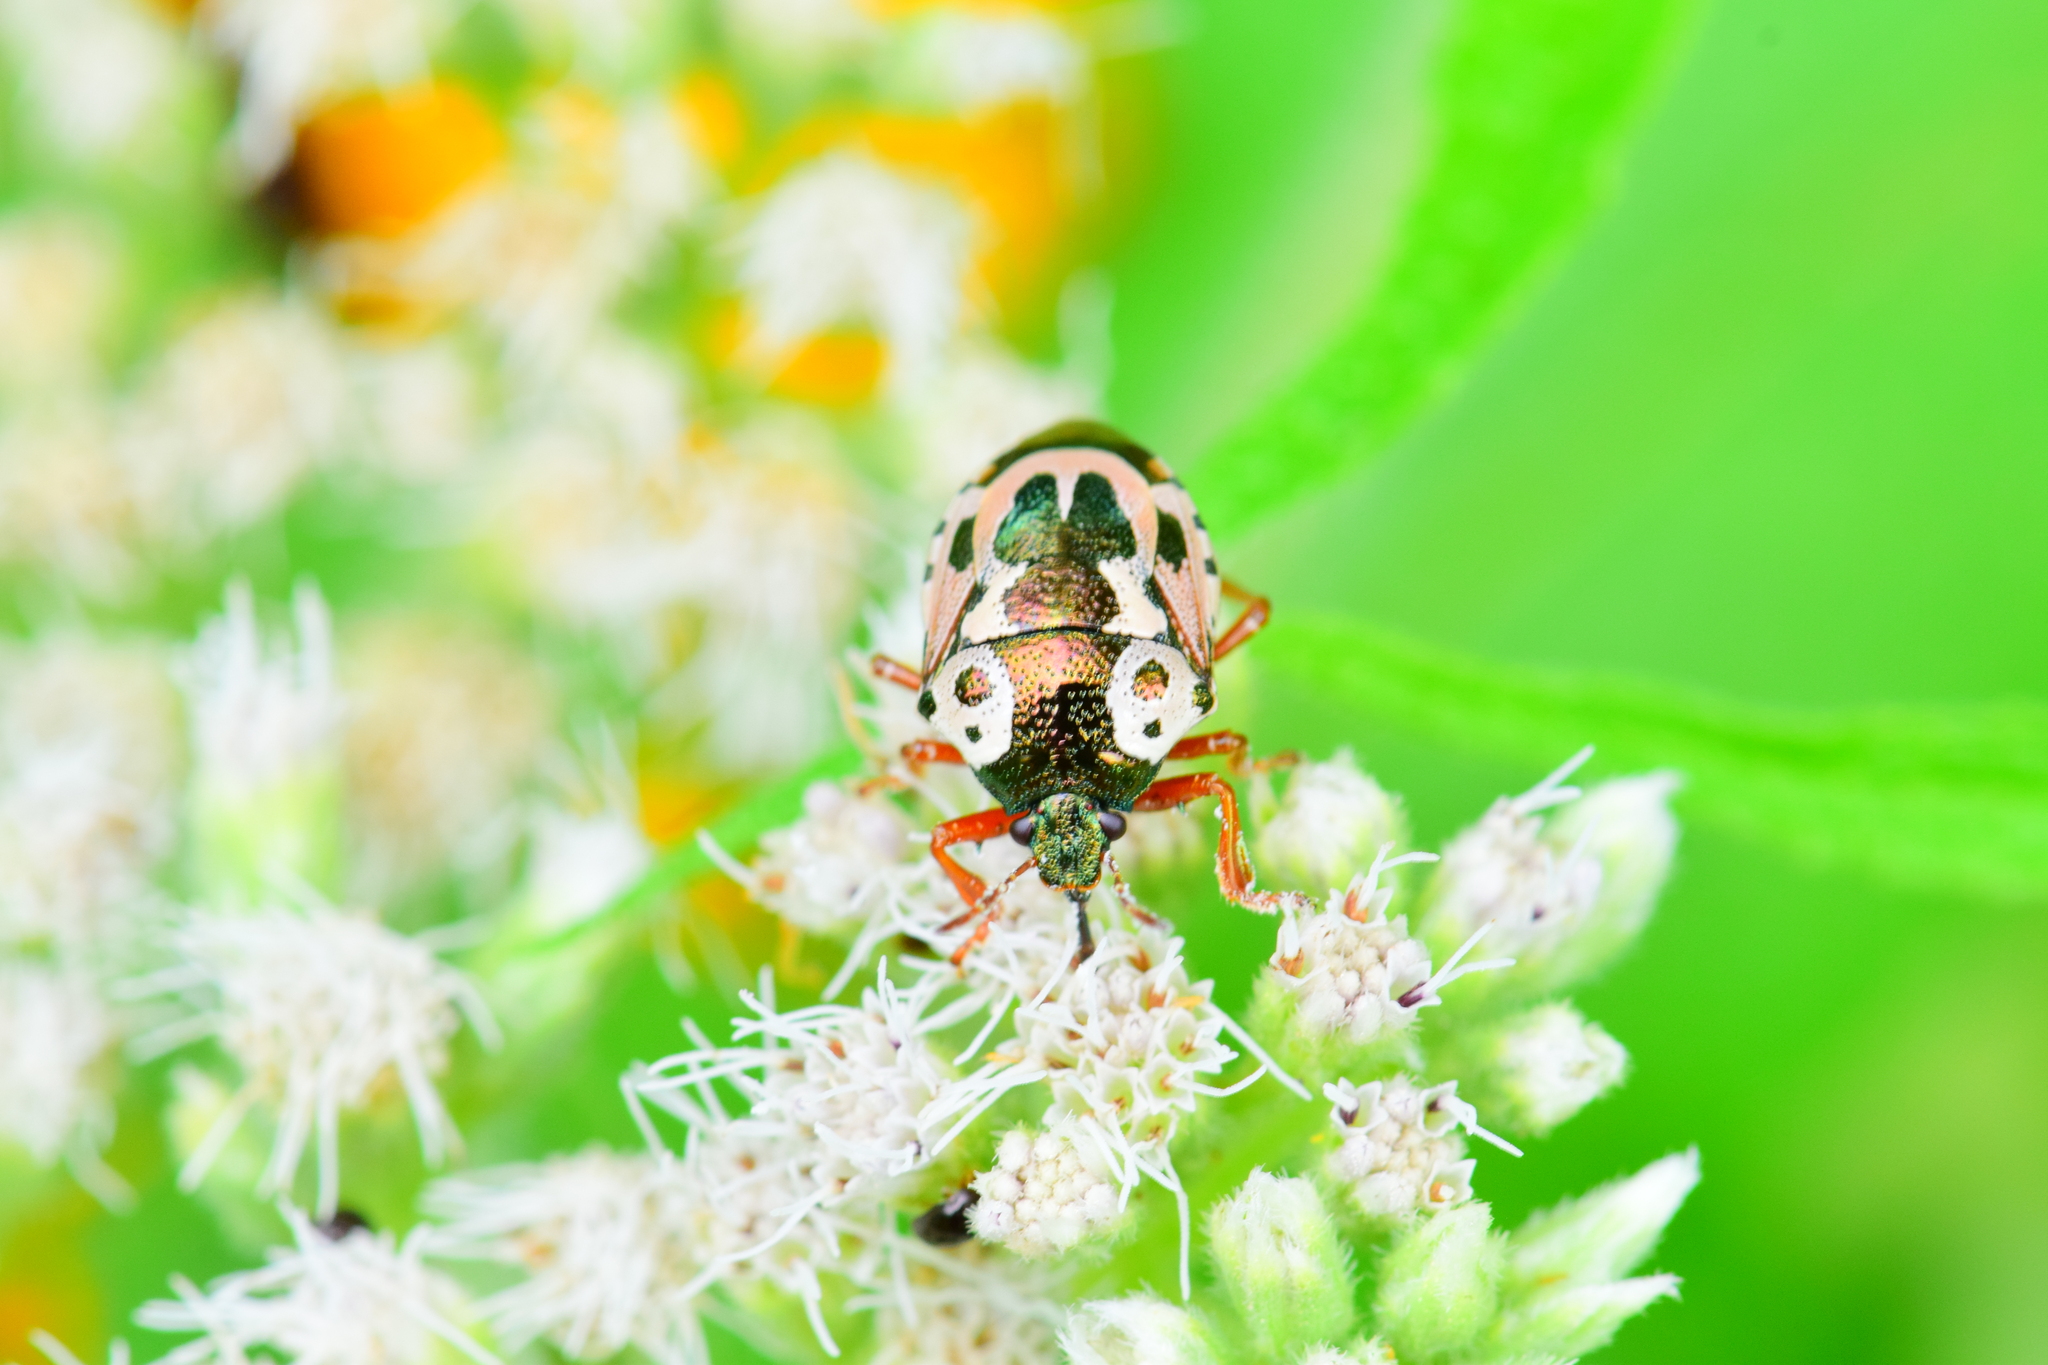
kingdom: Animalia
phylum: Arthropoda
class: Insecta
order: Hemiptera
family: Pentatomidae
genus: Stiretrus
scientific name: Stiretrus anchorago
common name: Anchor stink bug
